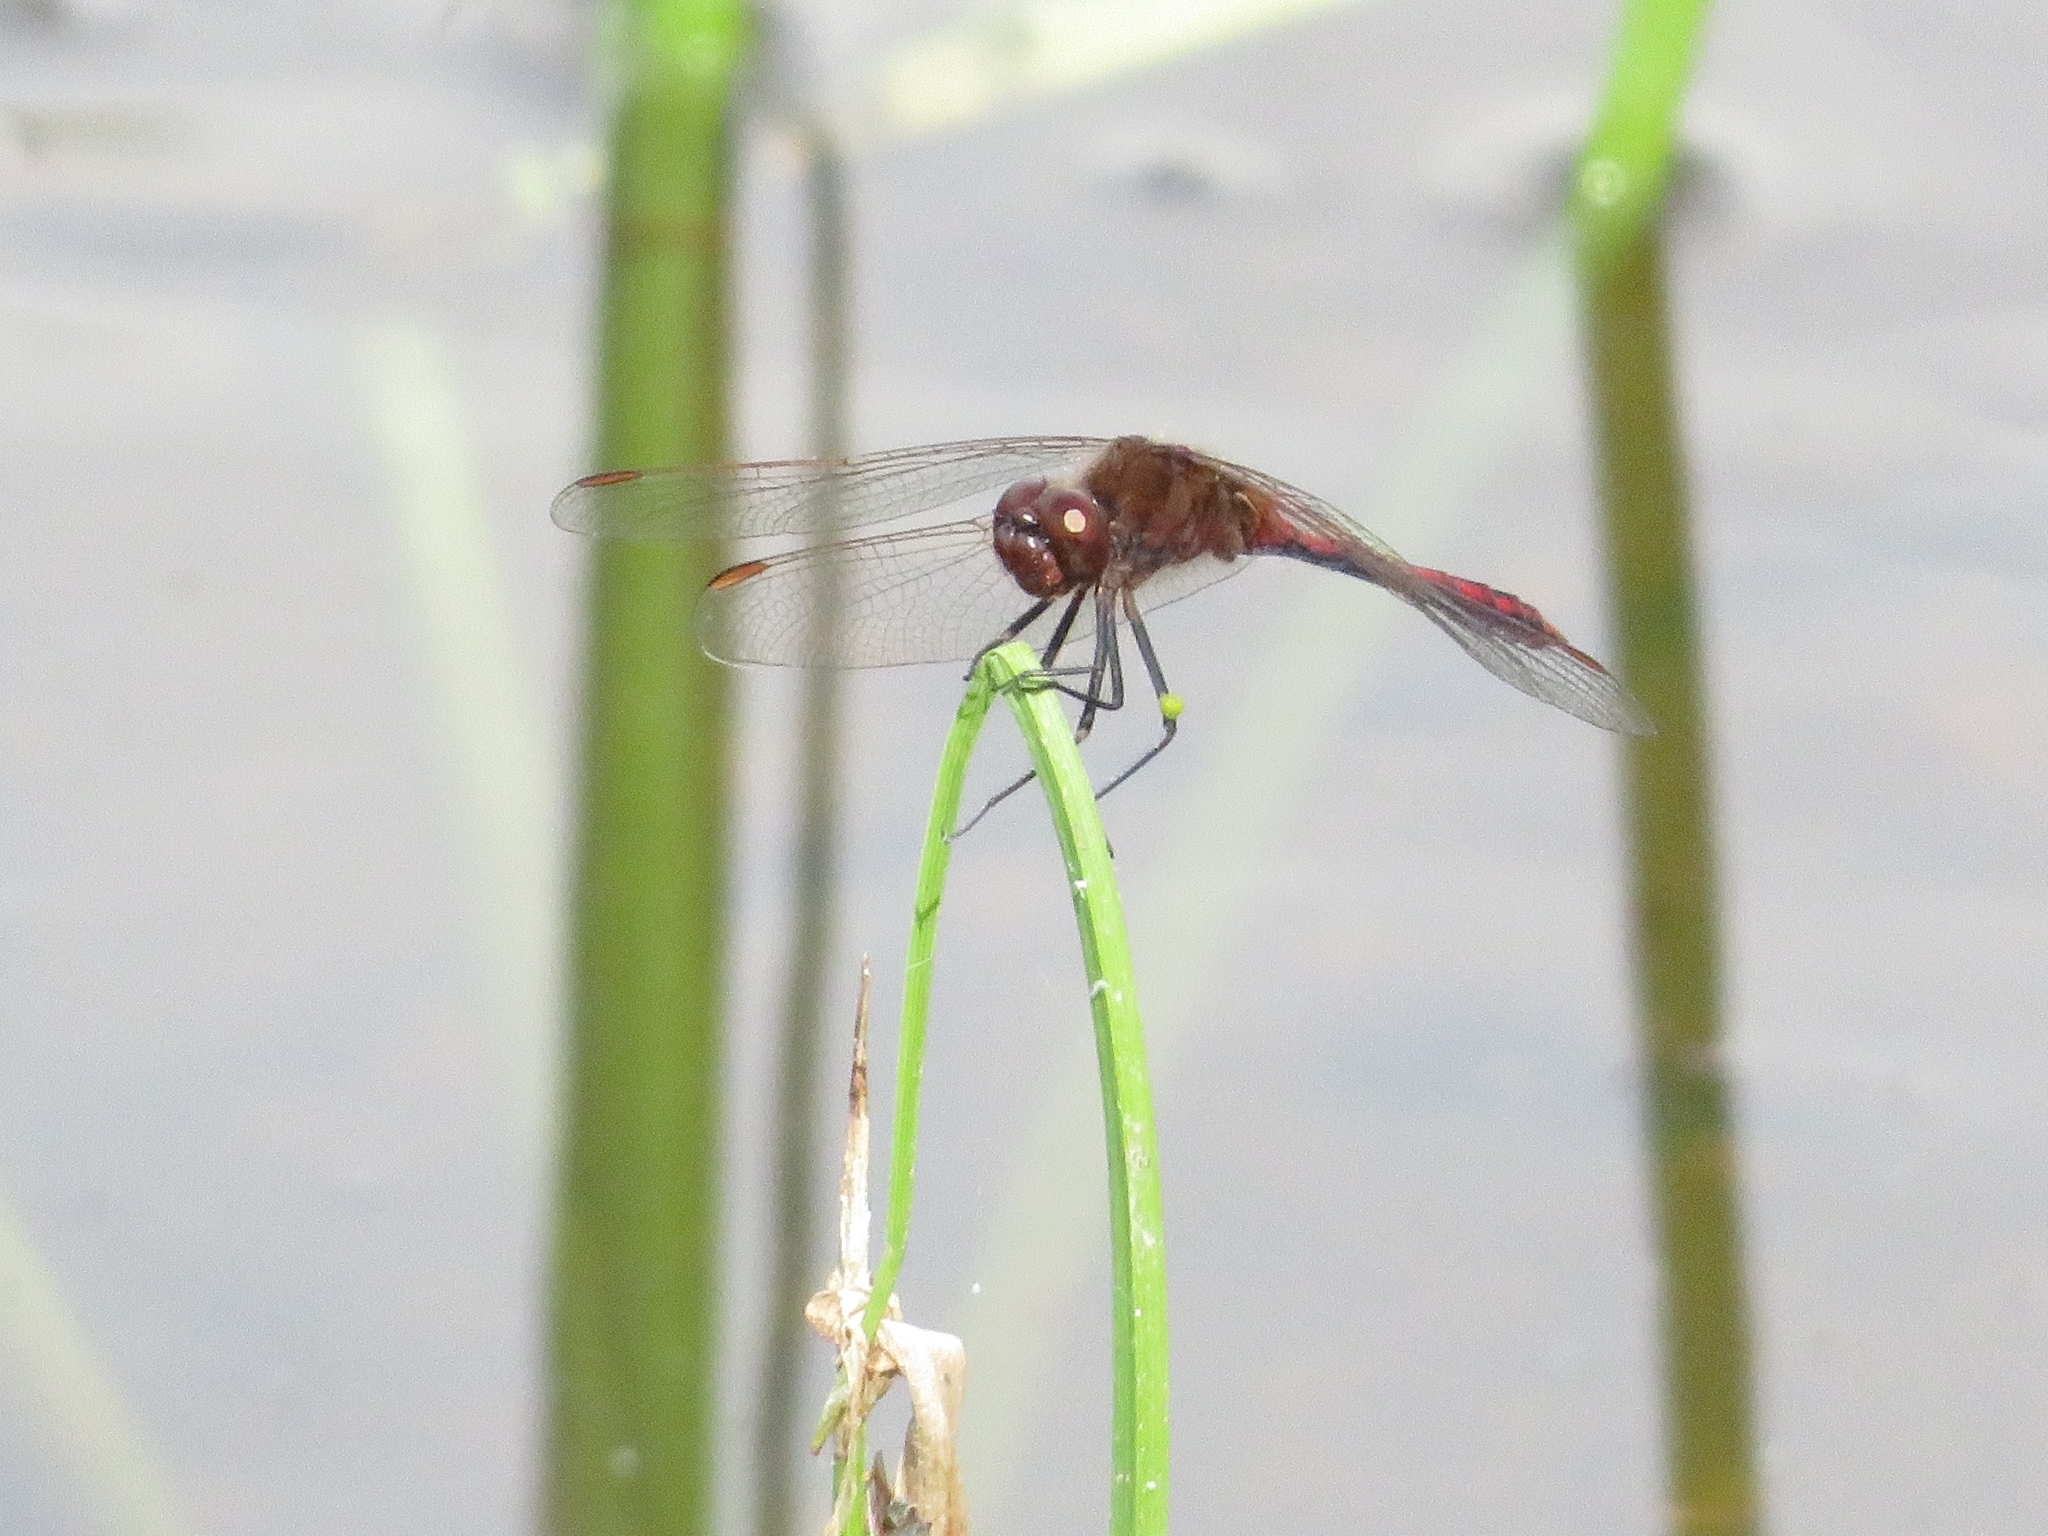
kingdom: Animalia
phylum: Arthropoda
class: Insecta
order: Odonata
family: Libellulidae
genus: Sympetrum
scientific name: Sympetrum costiferum
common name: Saffron-winged meadowhawk
